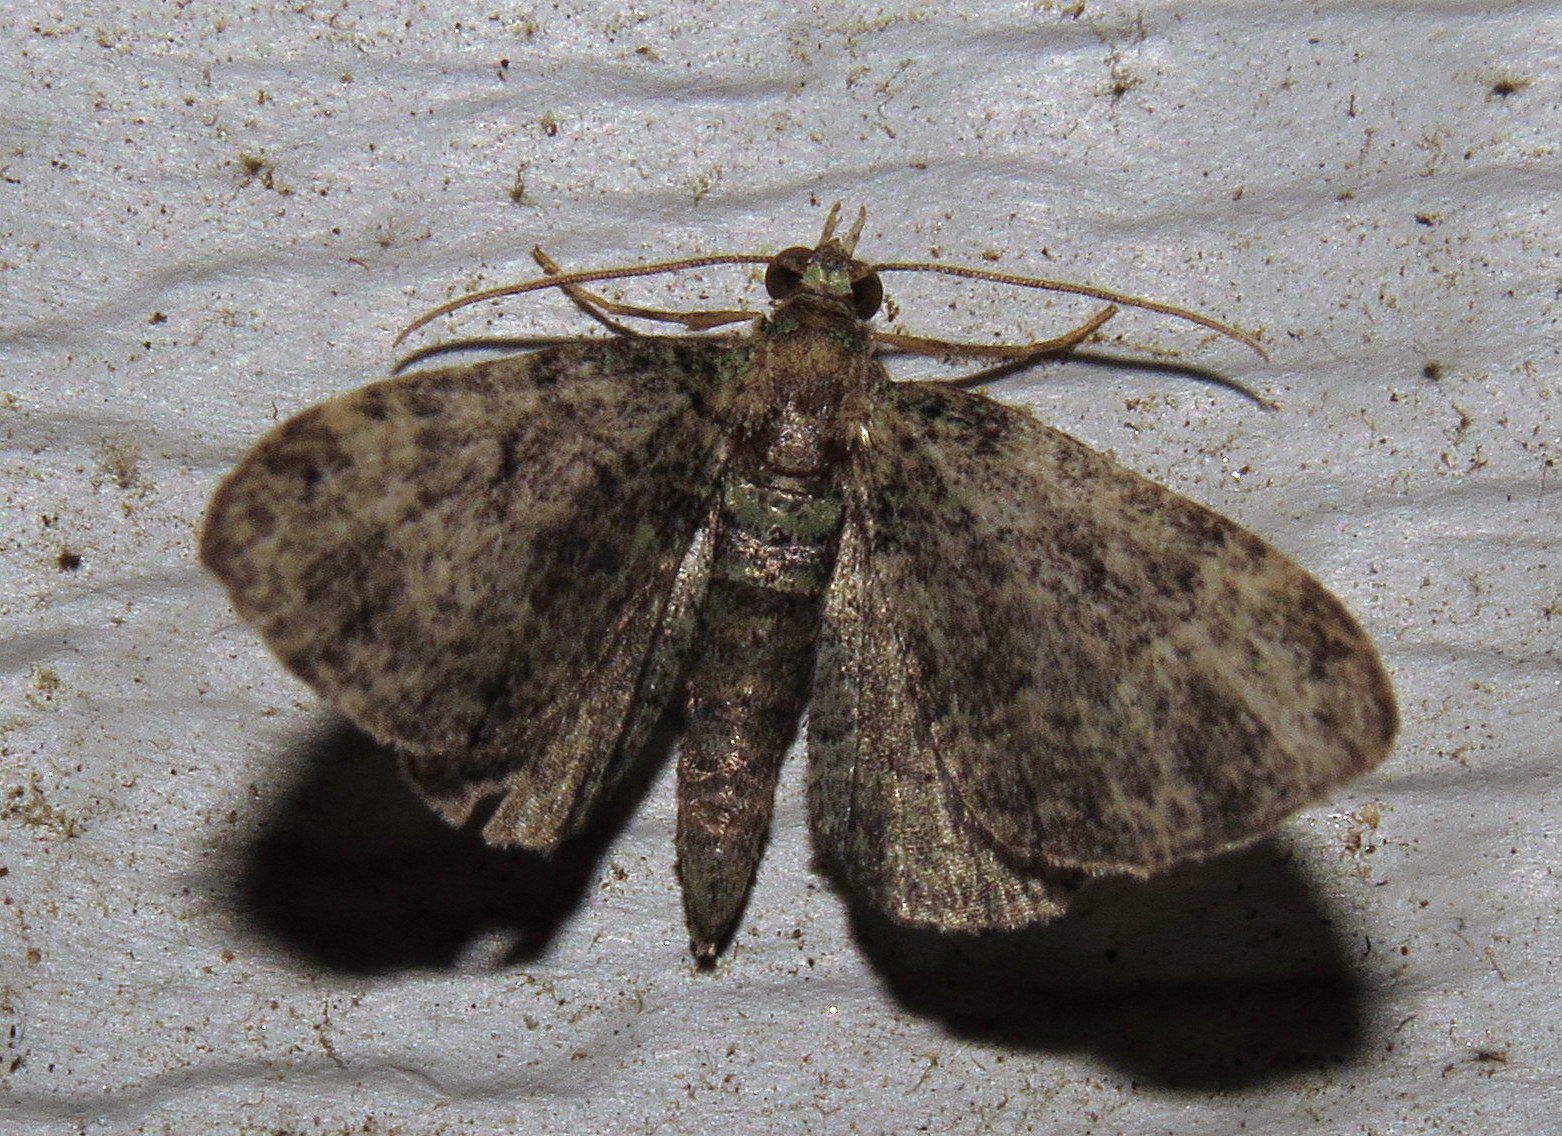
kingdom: Animalia
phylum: Arthropoda
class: Insecta
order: Lepidoptera
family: Geometridae
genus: Pasiphila
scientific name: Pasiphila rectangulata
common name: Green pug
